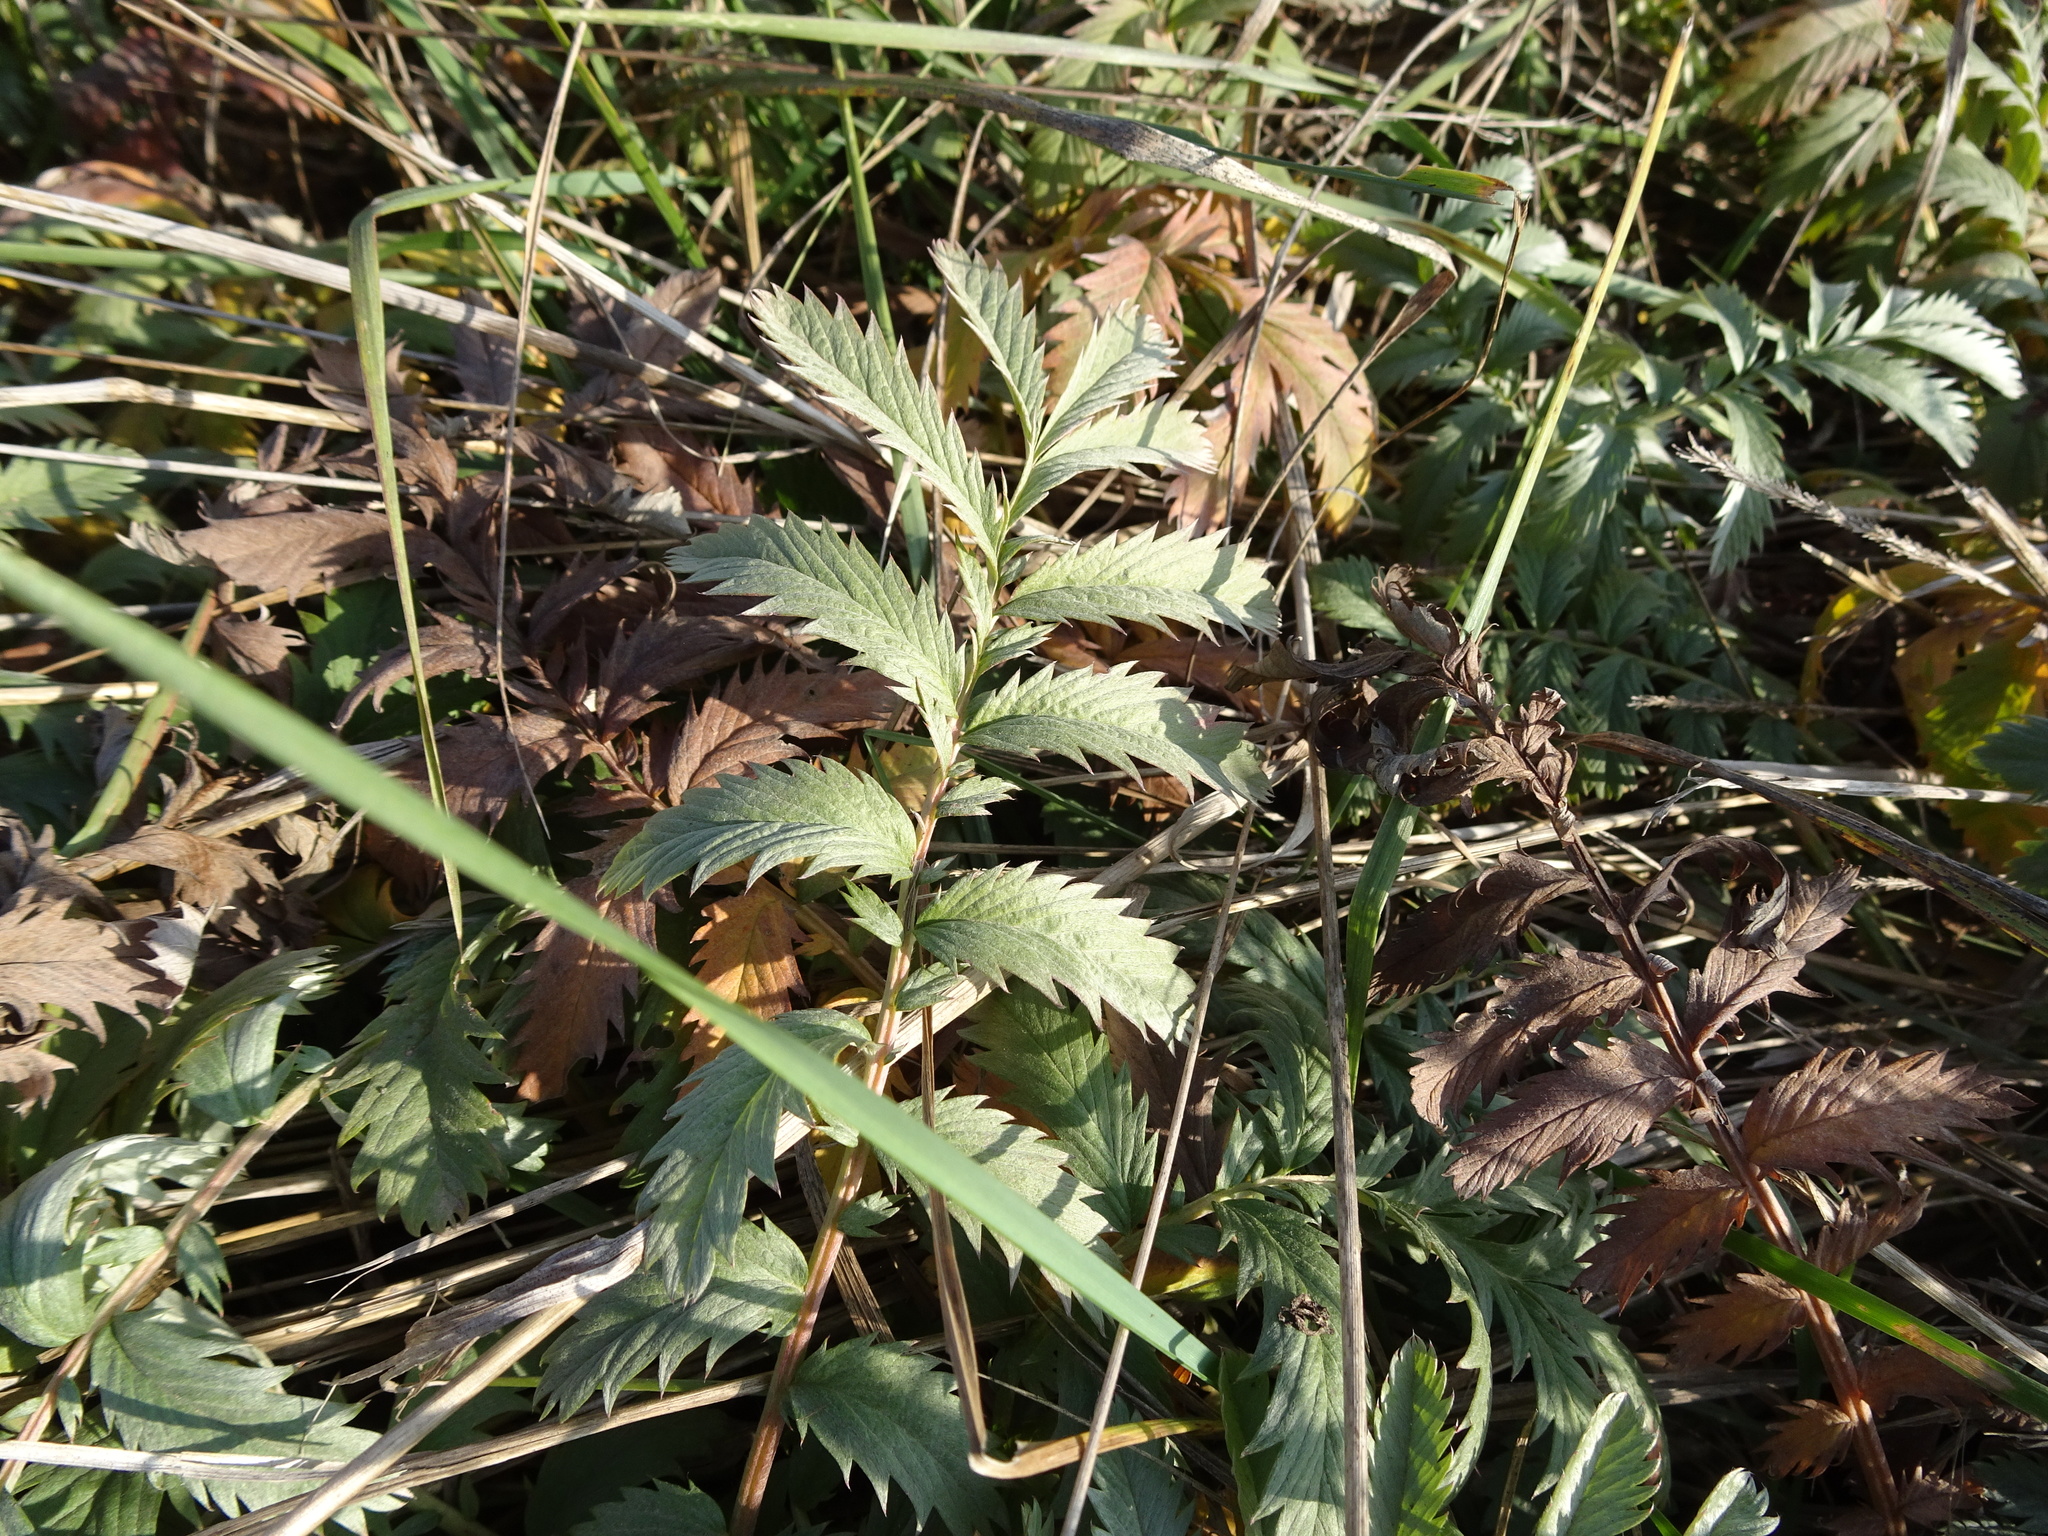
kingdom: Plantae
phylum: Tracheophyta
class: Magnoliopsida
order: Rosales
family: Rosaceae
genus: Argentina
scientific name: Argentina anserina
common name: Common silverweed
